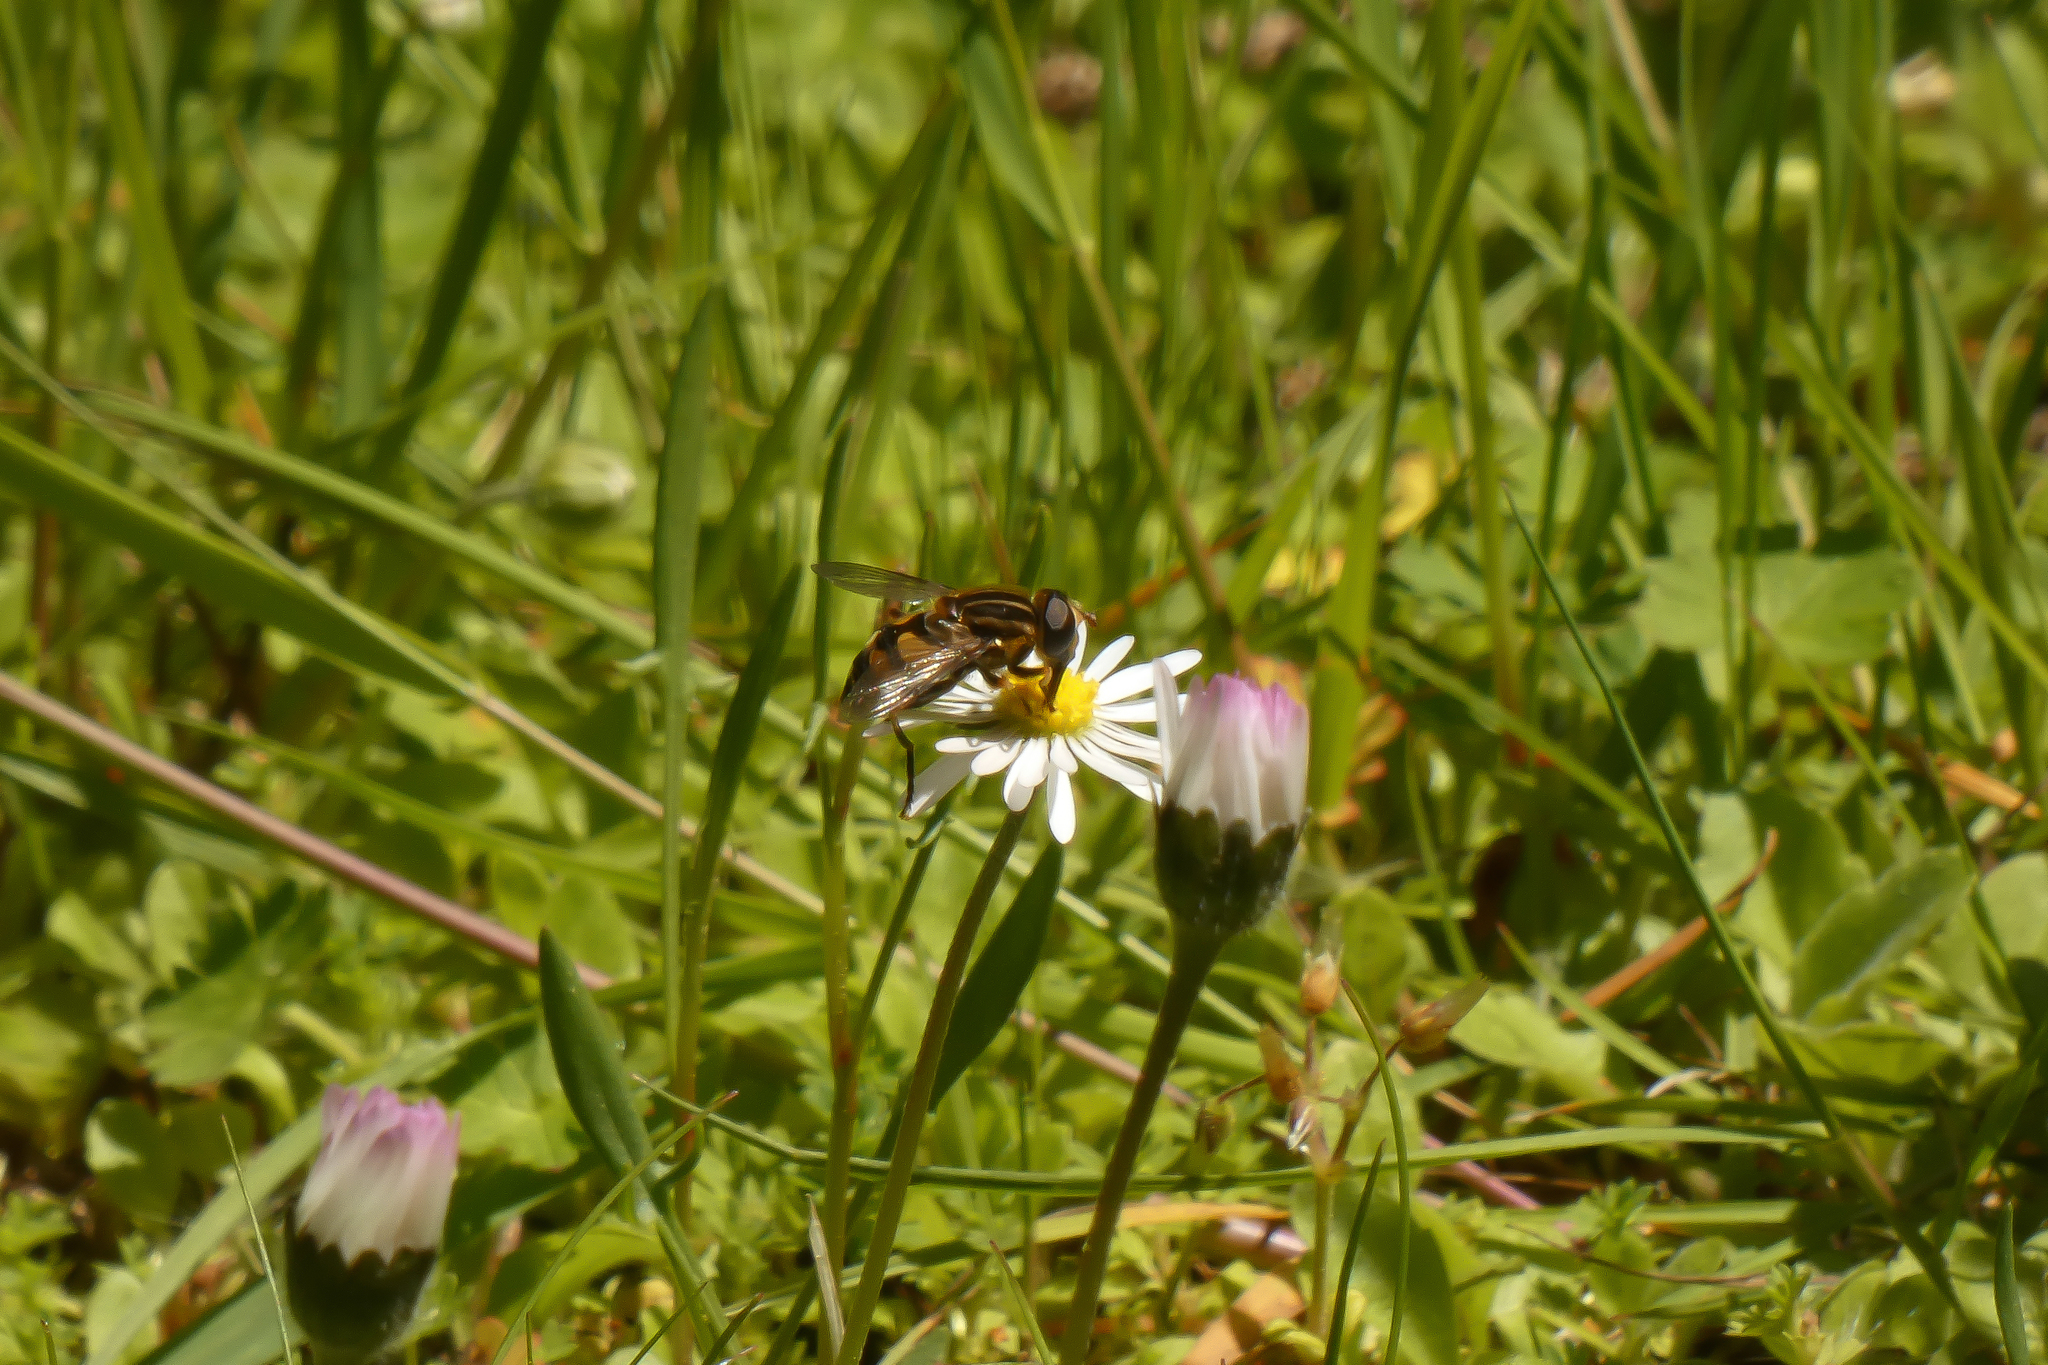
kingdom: Animalia
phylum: Arthropoda
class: Insecta
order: Diptera
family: Syrphidae
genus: Helophilus
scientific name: Helophilus fasciatus
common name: Narrow-headed marsh fly
